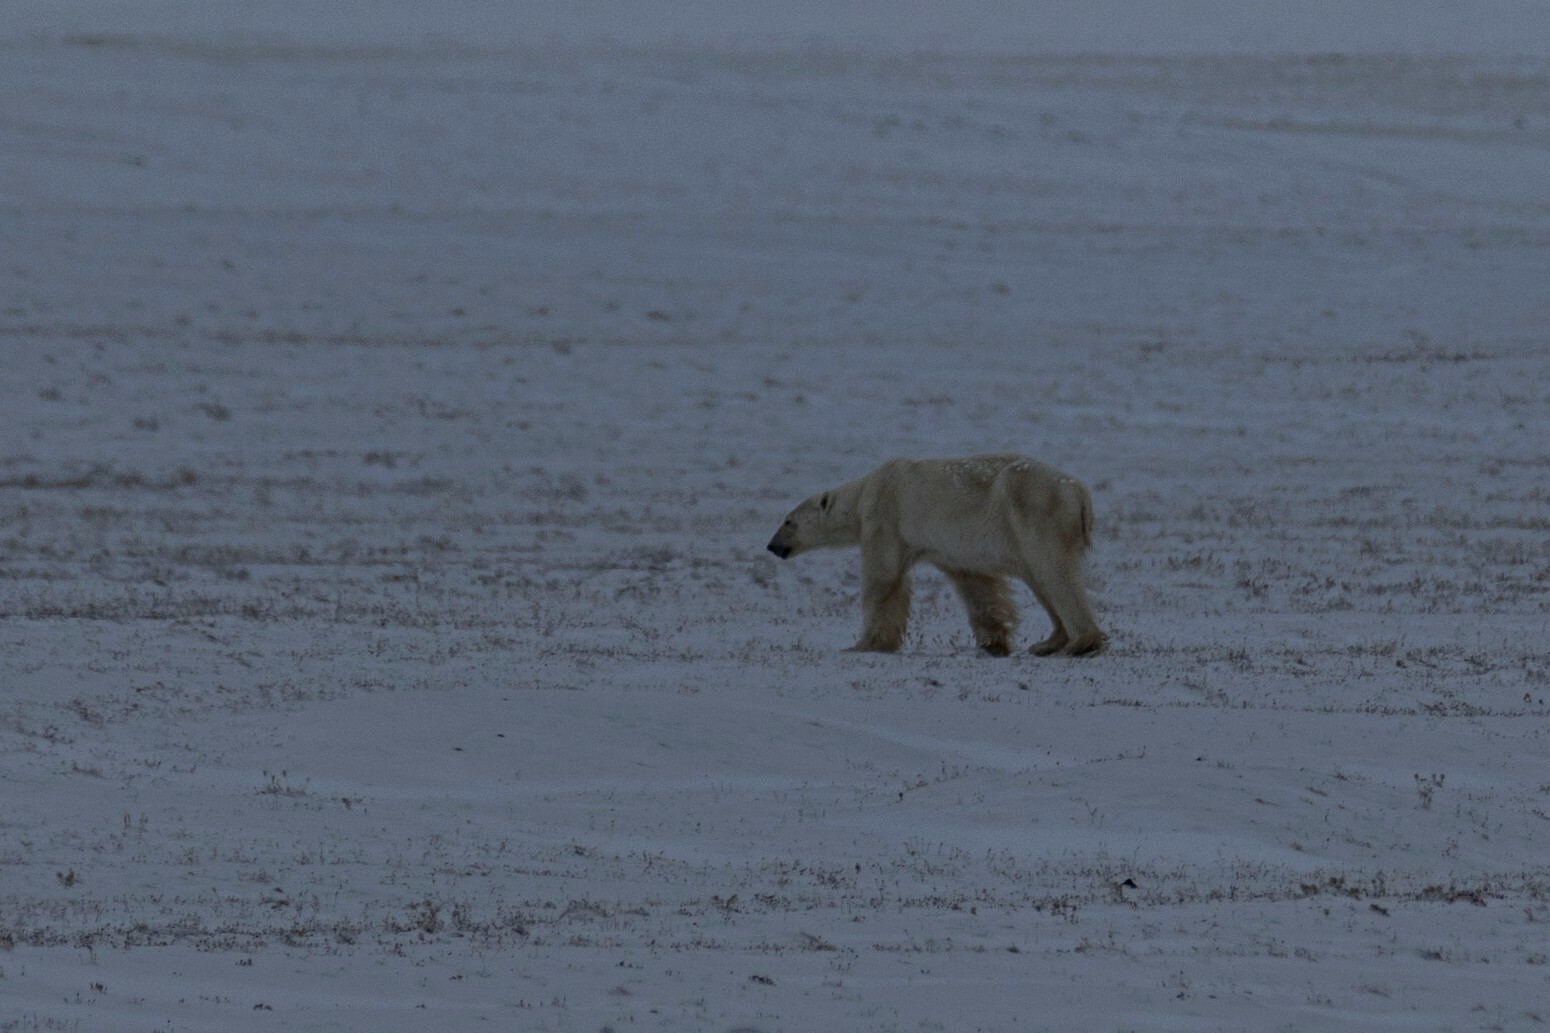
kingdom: Animalia
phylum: Chordata
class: Mammalia
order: Carnivora
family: Ursidae
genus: Ursus
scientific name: Ursus maritimus
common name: Polar bear
